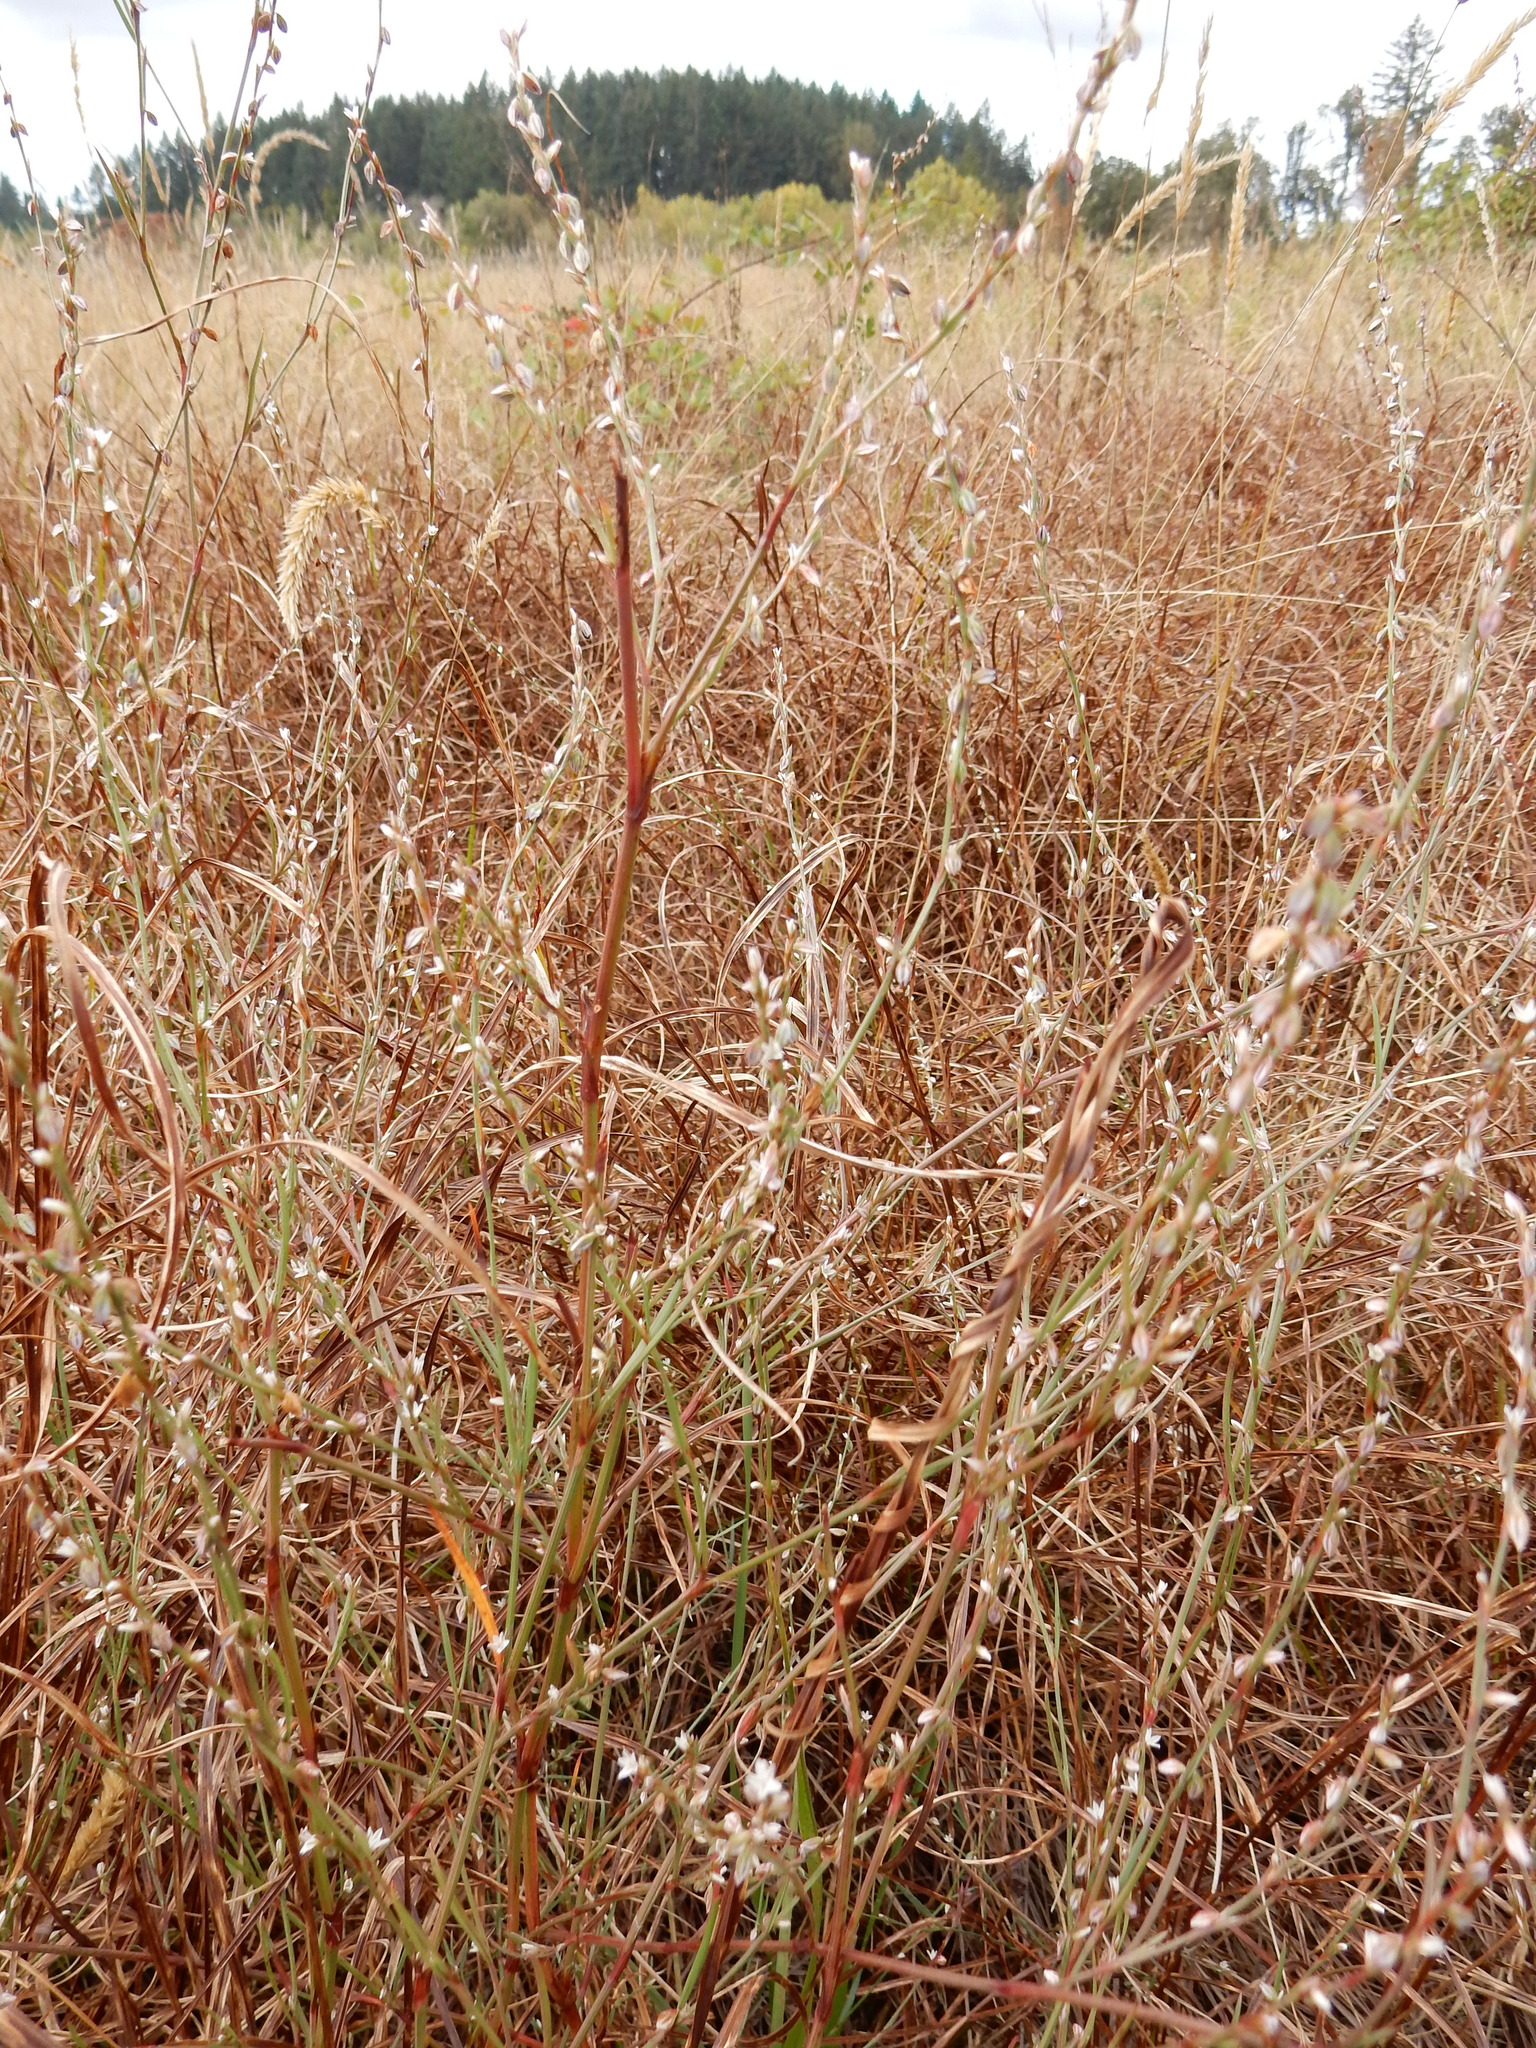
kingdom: Plantae
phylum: Tracheophyta
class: Magnoliopsida
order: Caryophyllales
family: Polygonaceae
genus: Polygonum
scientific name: Polygonum douglasii
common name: Douglas' knotweed
